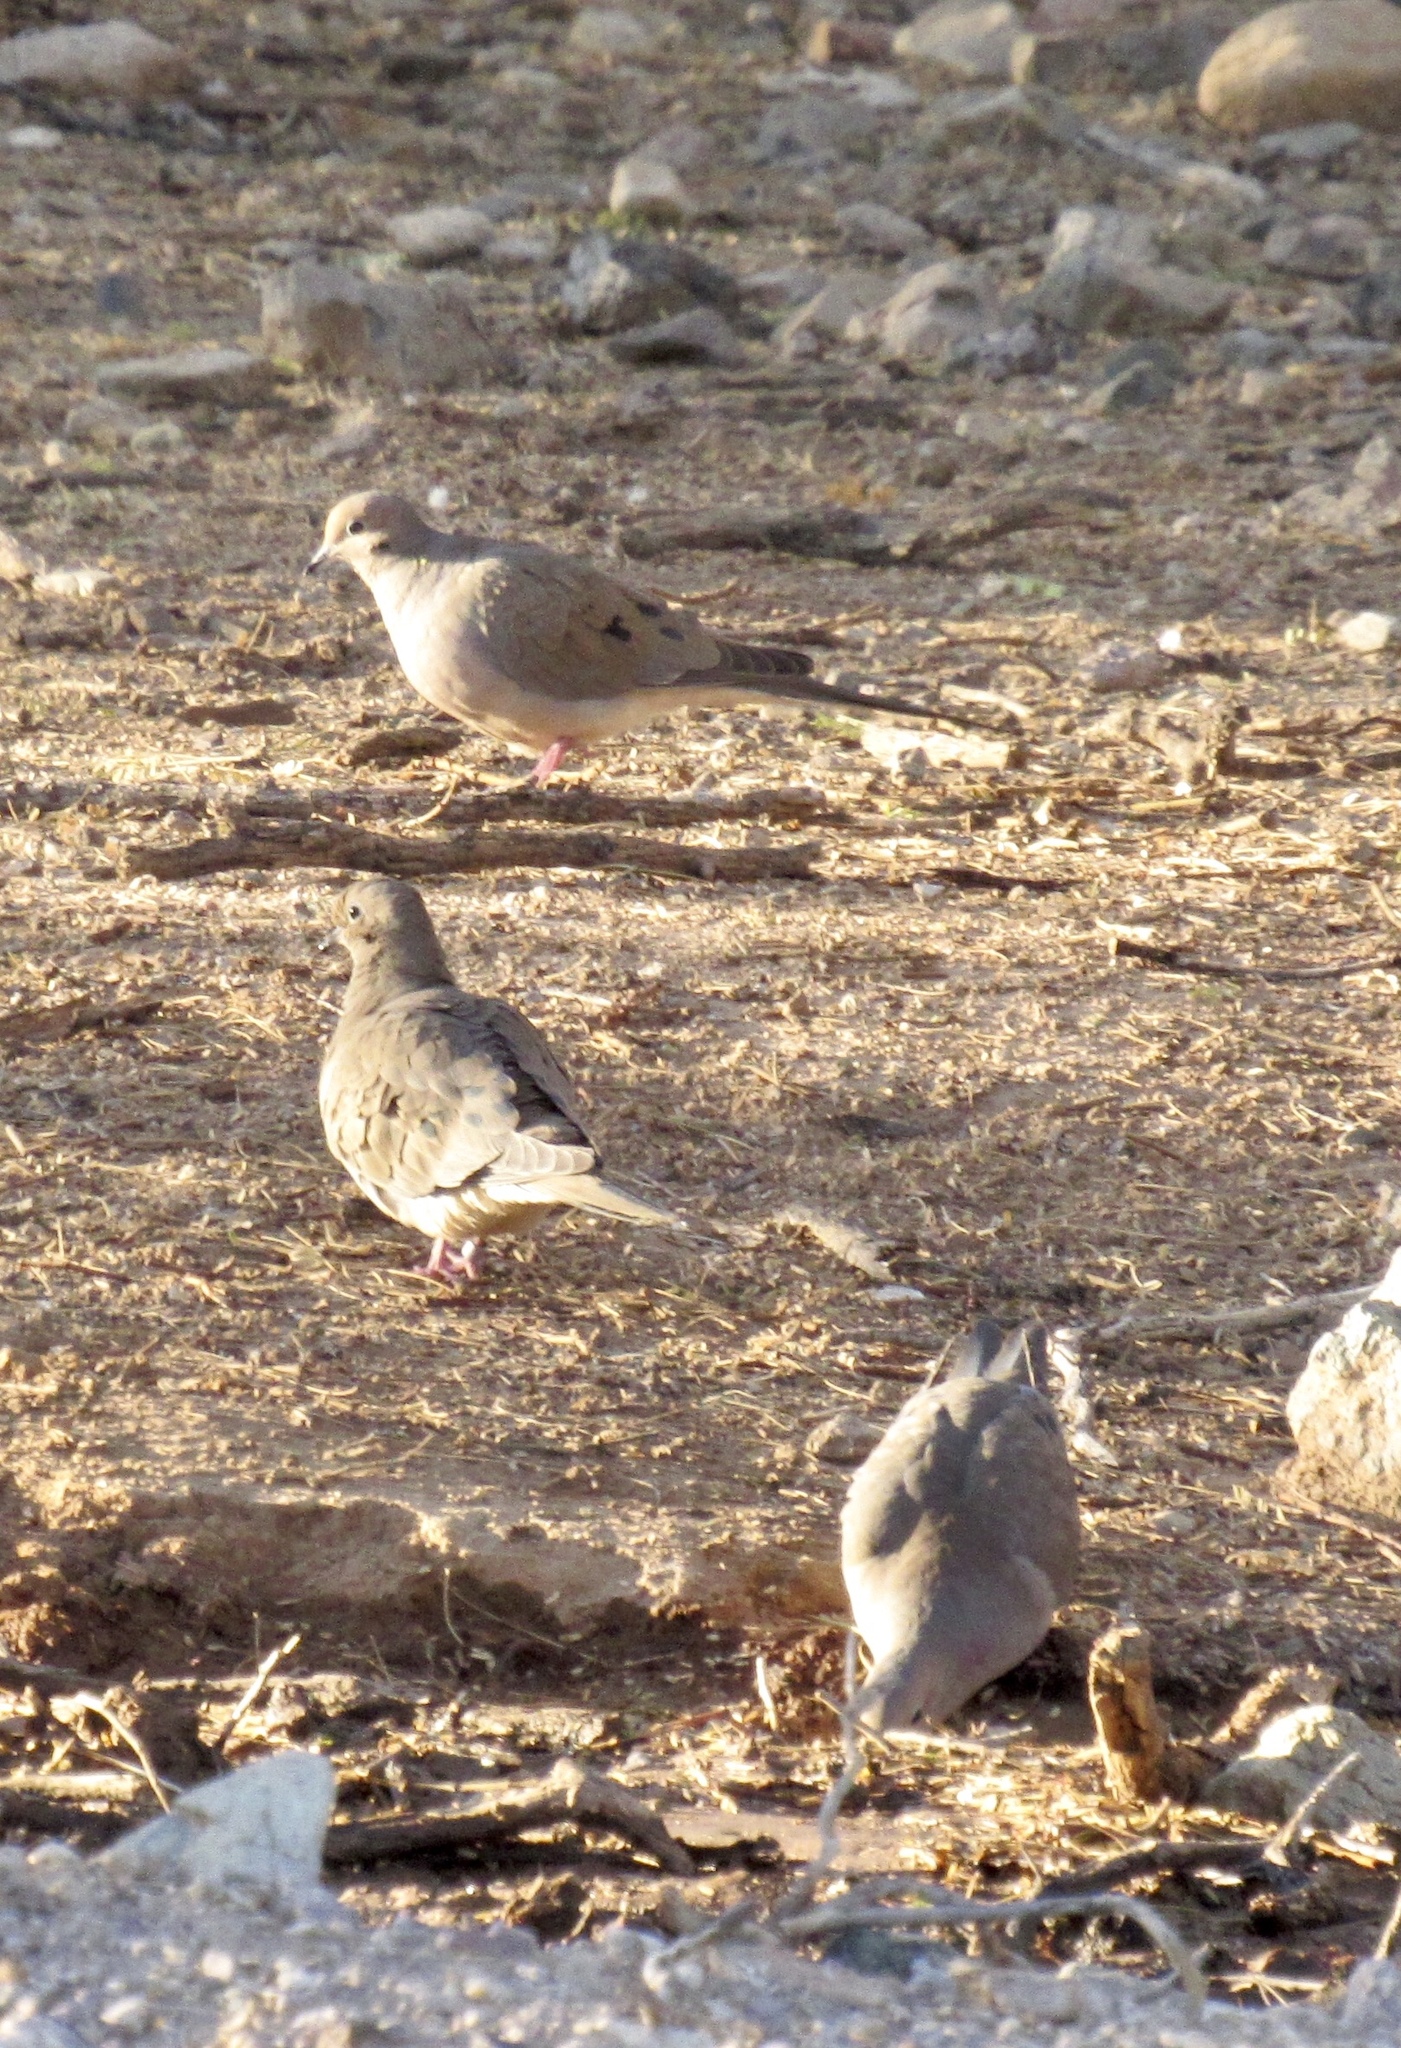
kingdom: Animalia
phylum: Chordata
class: Aves
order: Columbiformes
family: Columbidae
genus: Zenaida
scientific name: Zenaida macroura
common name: Mourning dove
